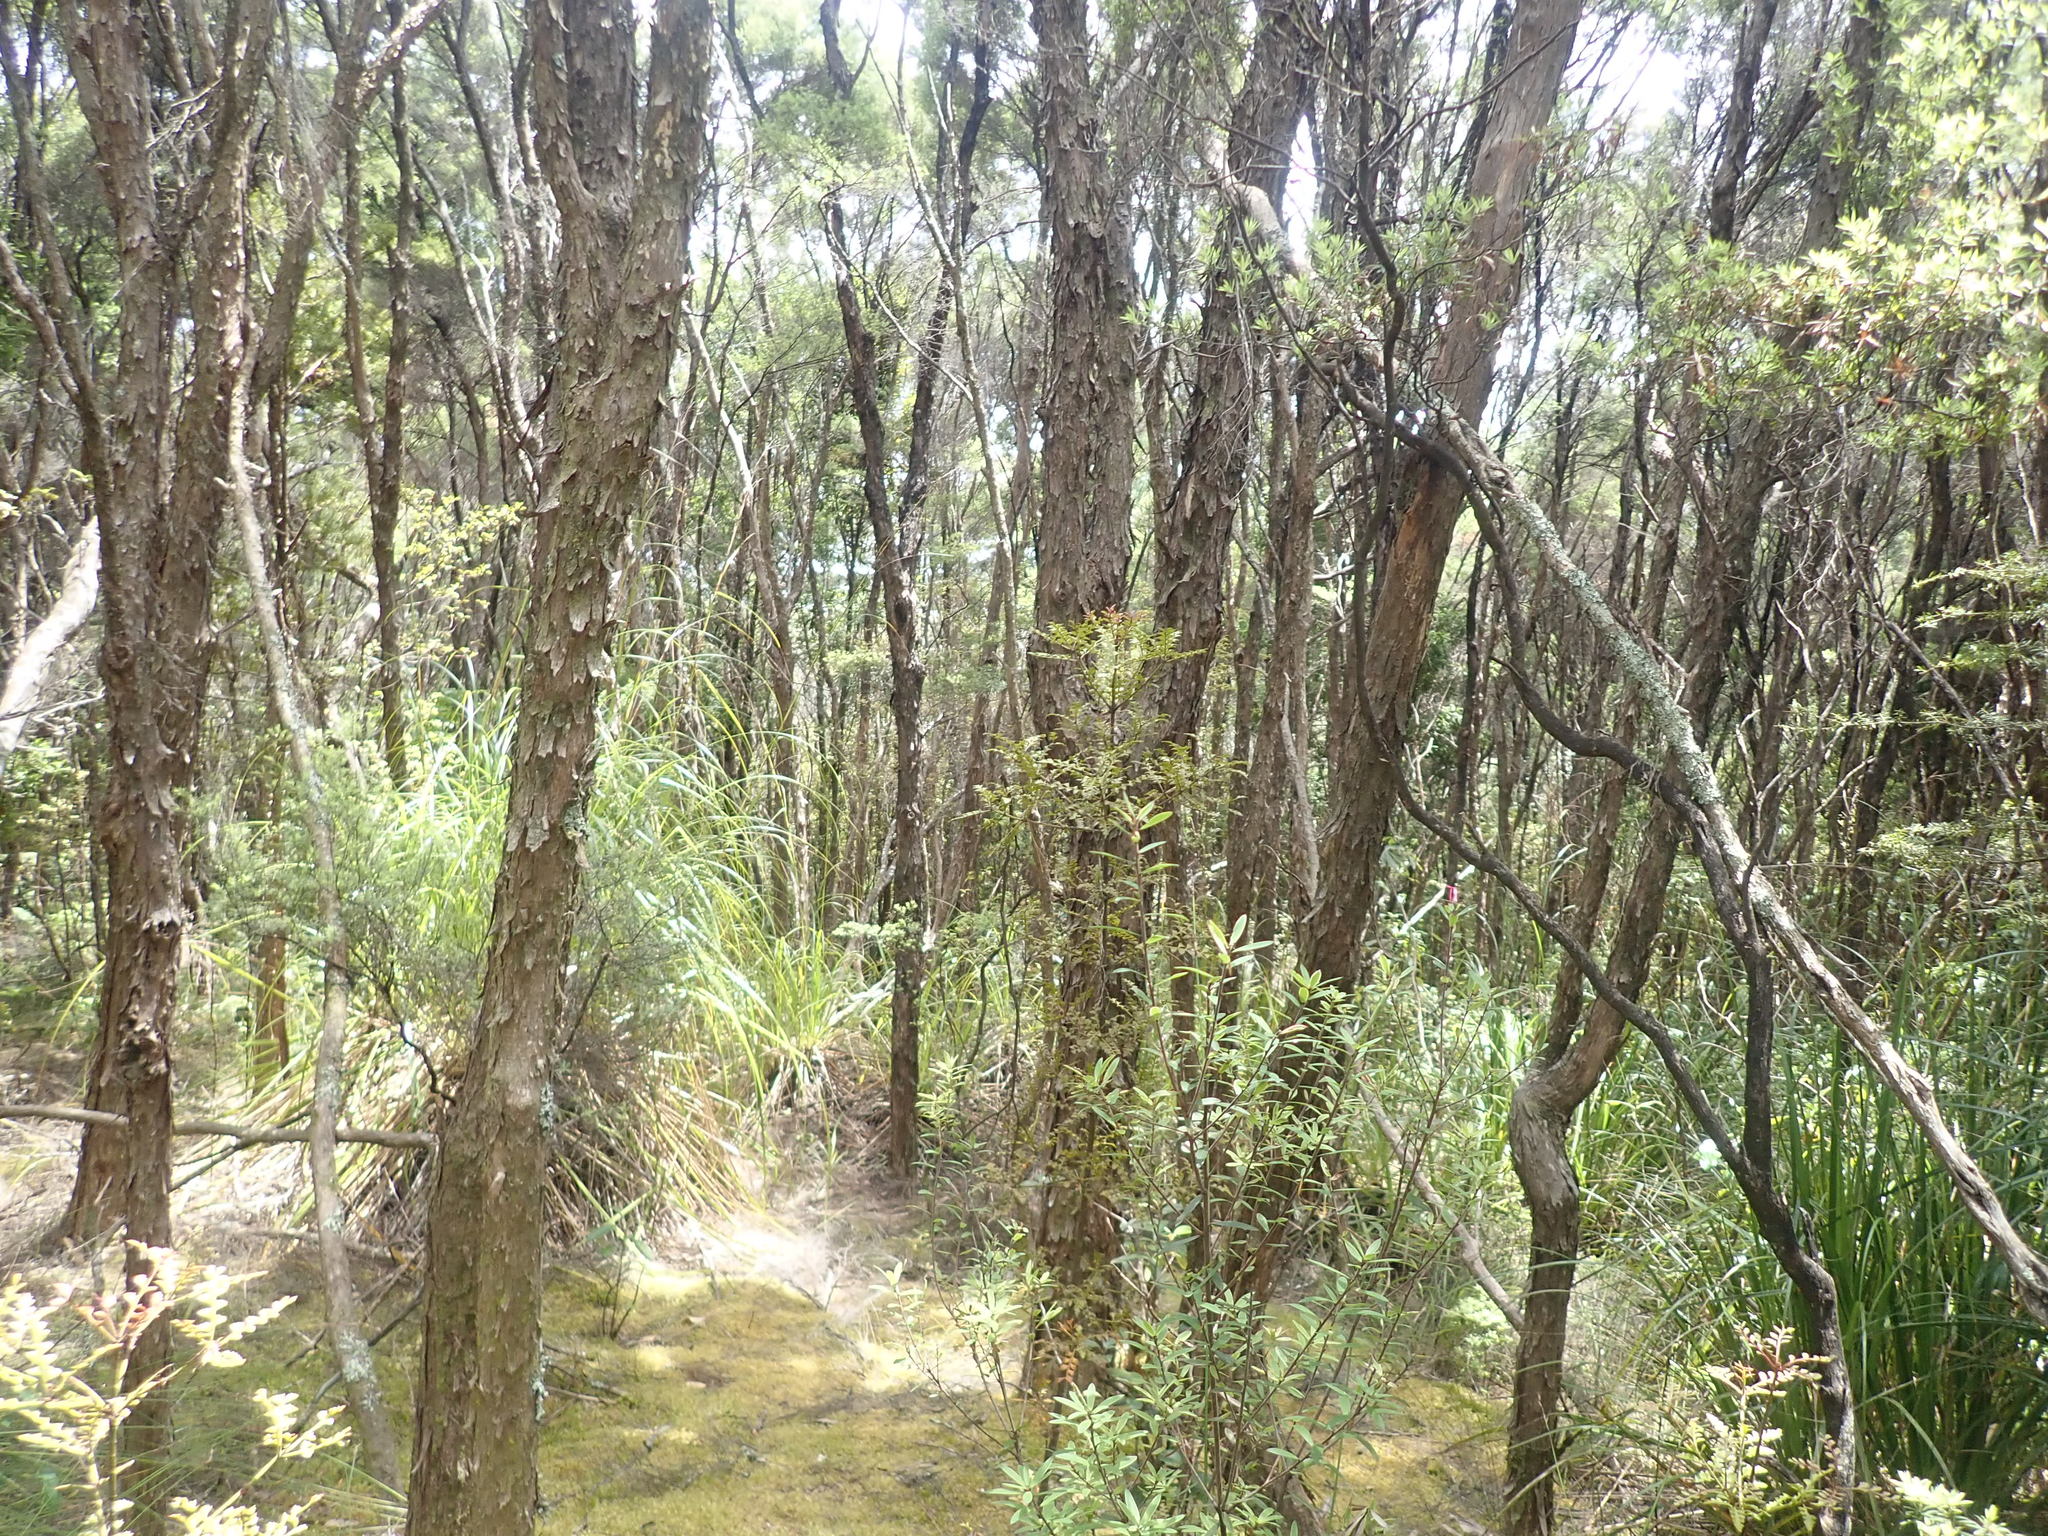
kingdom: Plantae
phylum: Tracheophyta
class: Magnoliopsida
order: Myrtales
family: Myrtaceae
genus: Kunzea
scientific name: Kunzea robusta
